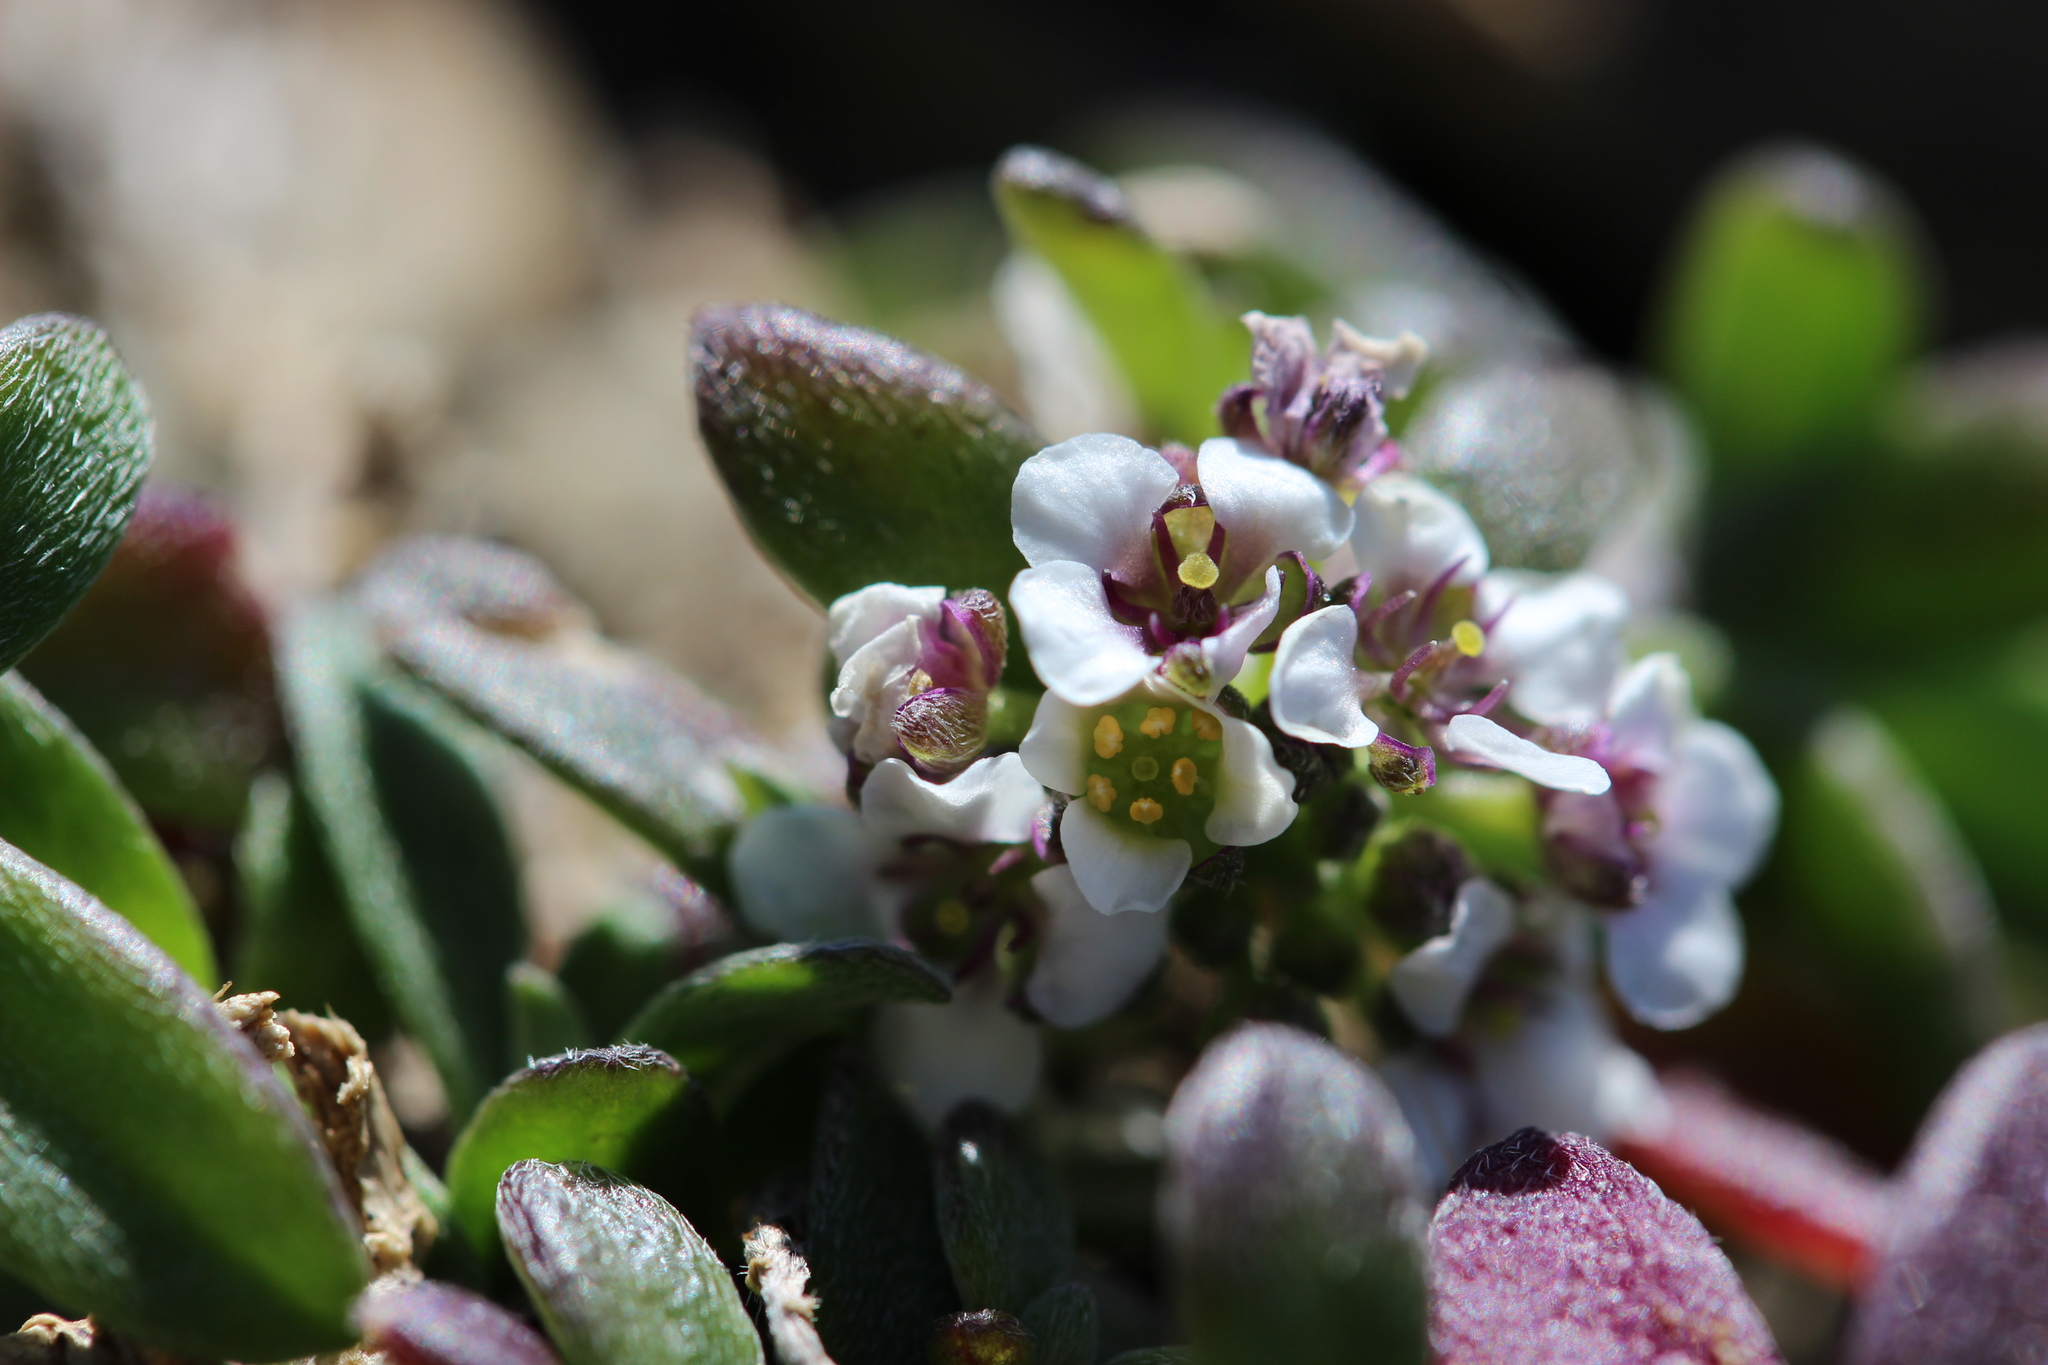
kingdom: Plantae
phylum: Tracheophyta
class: Magnoliopsida
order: Brassicales
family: Brassicaceae
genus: Lobularia
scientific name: Lobularia maritima
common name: Sweet alison
